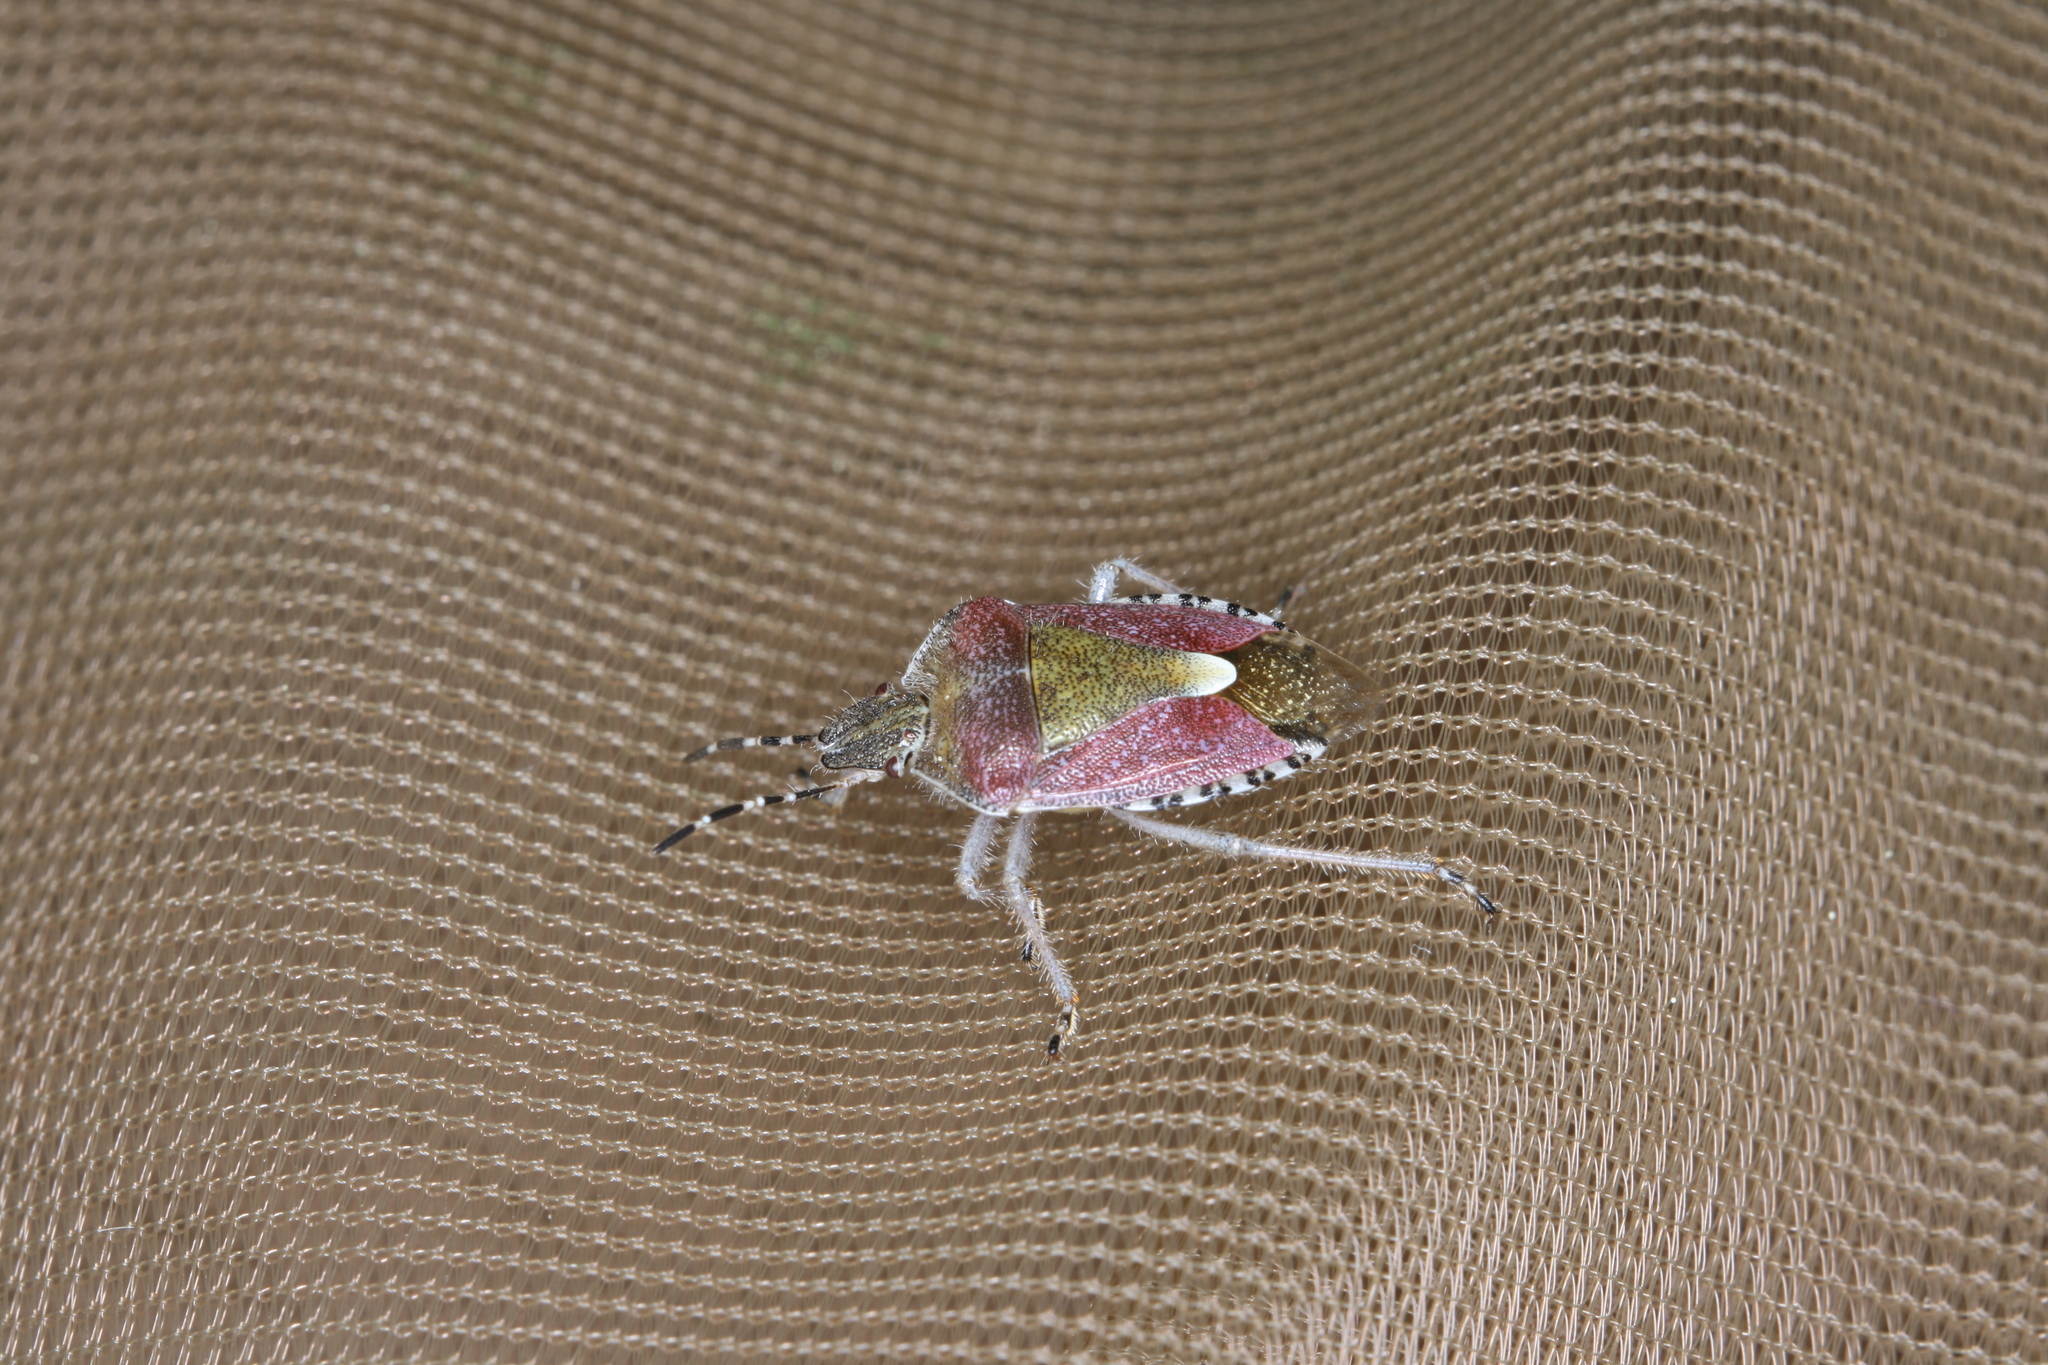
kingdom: Animalia
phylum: Arthropoda
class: Insecta
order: Hemiptera
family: Pentatomidae
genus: Dolycoris
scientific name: Dolycoris baccarum
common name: Sloe bug
